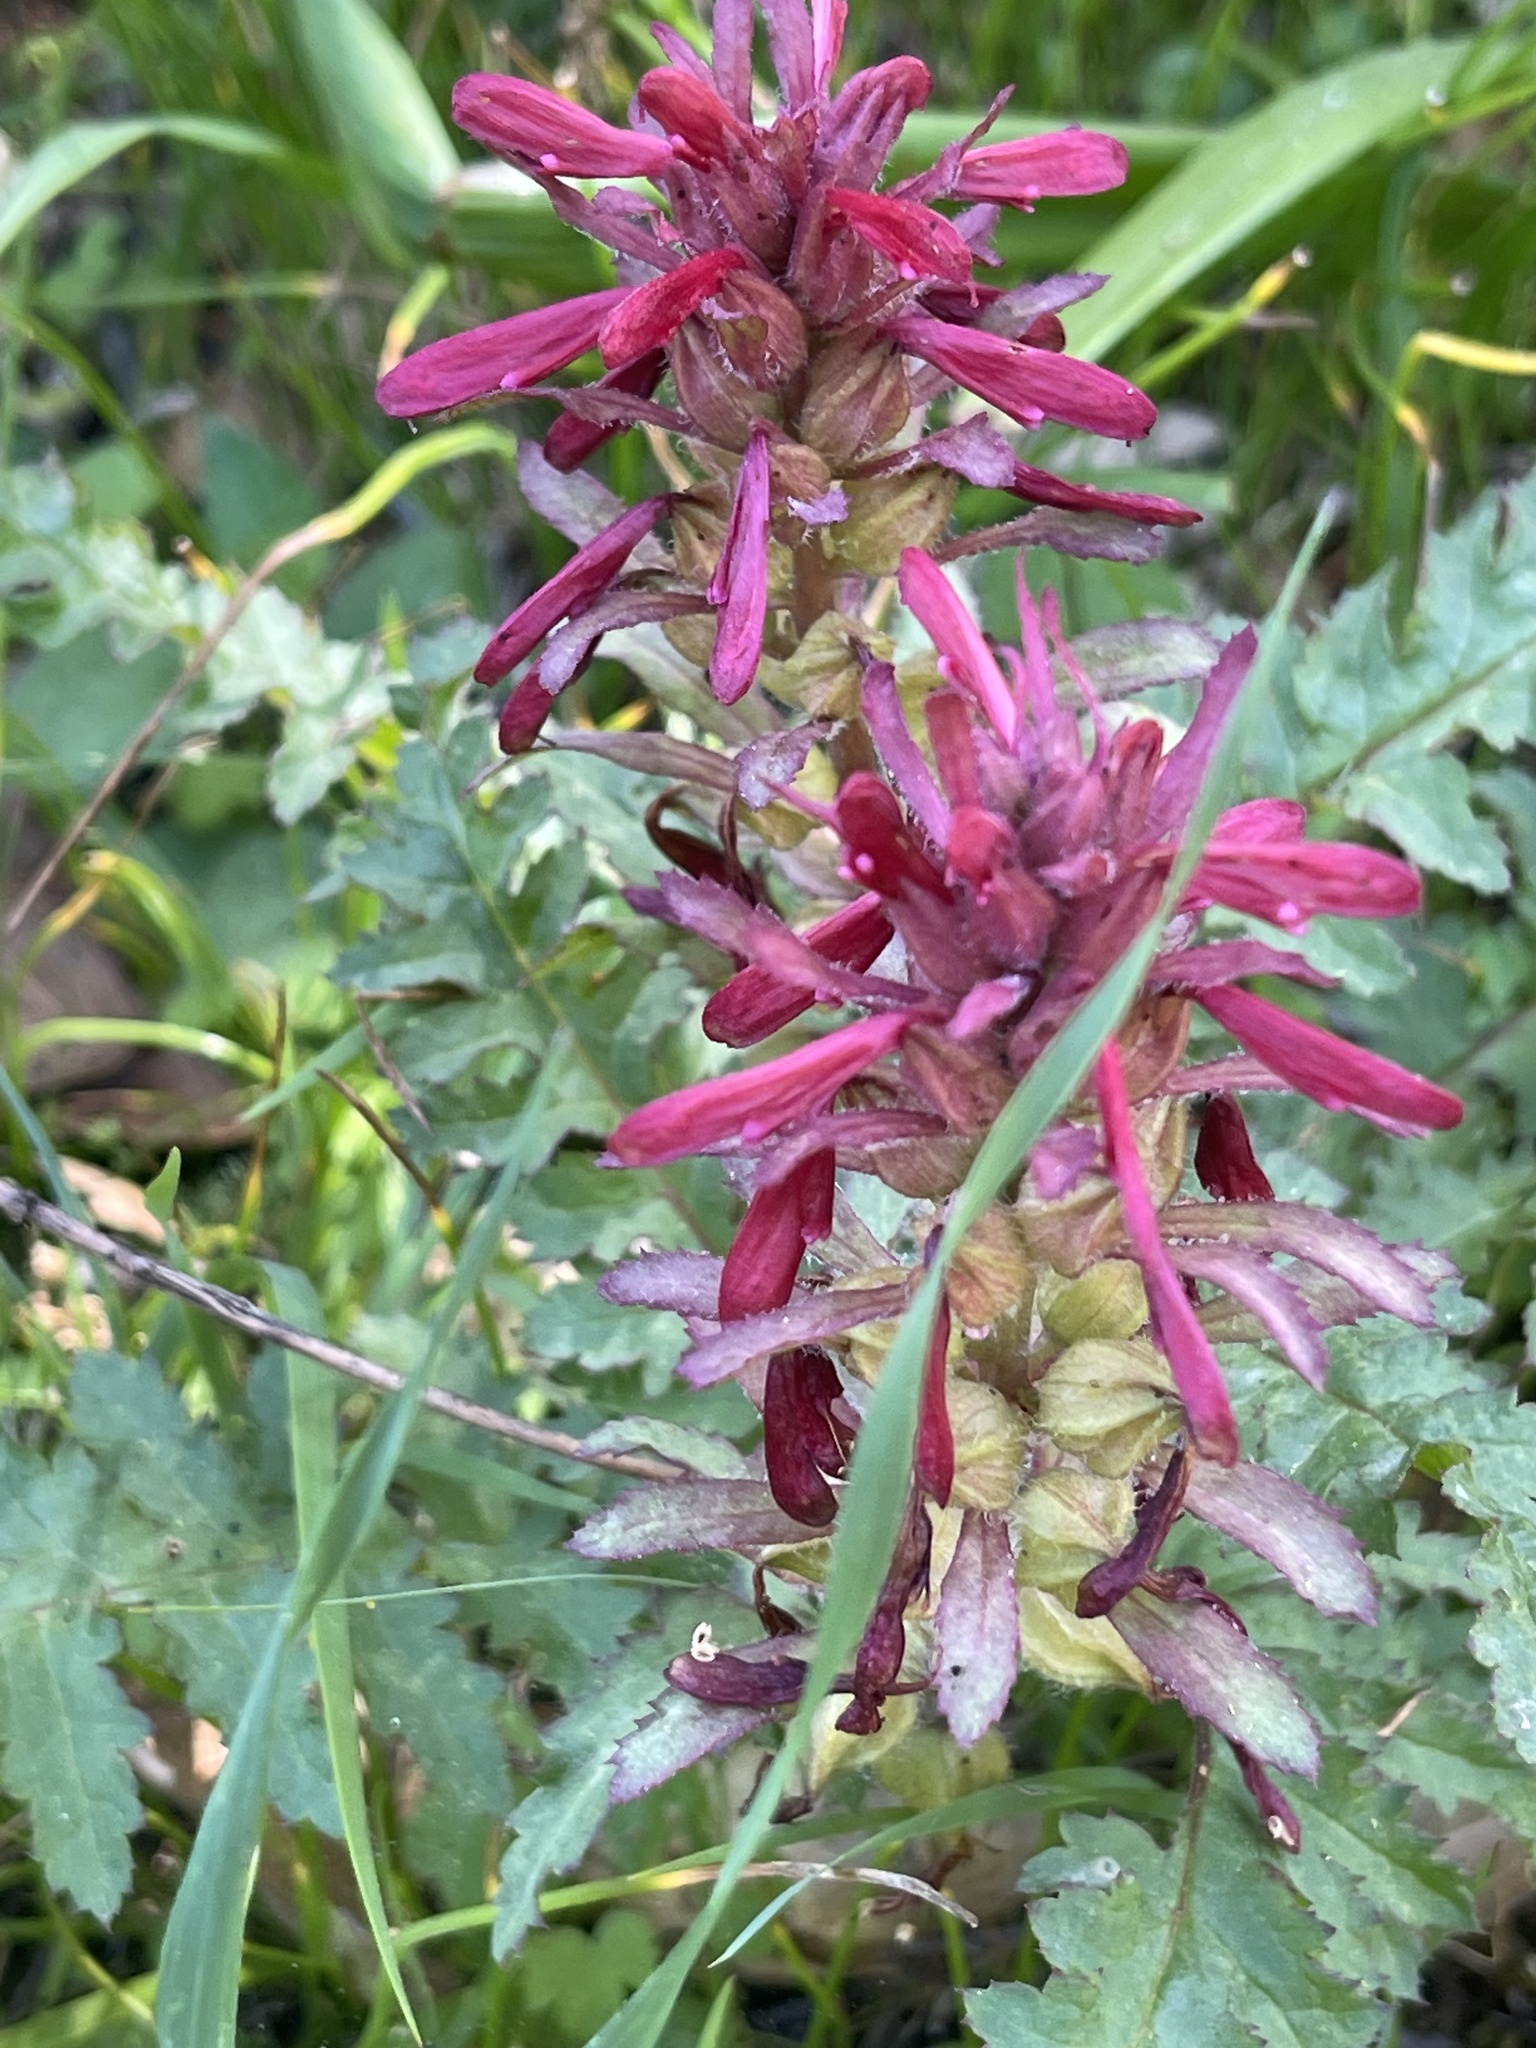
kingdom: Plantae
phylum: Tracheophyta
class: Magnoliopsida
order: Lamiales
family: Orobanchaceae
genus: Pedicularis
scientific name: Pedicularis densiflora
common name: Indian warrior
